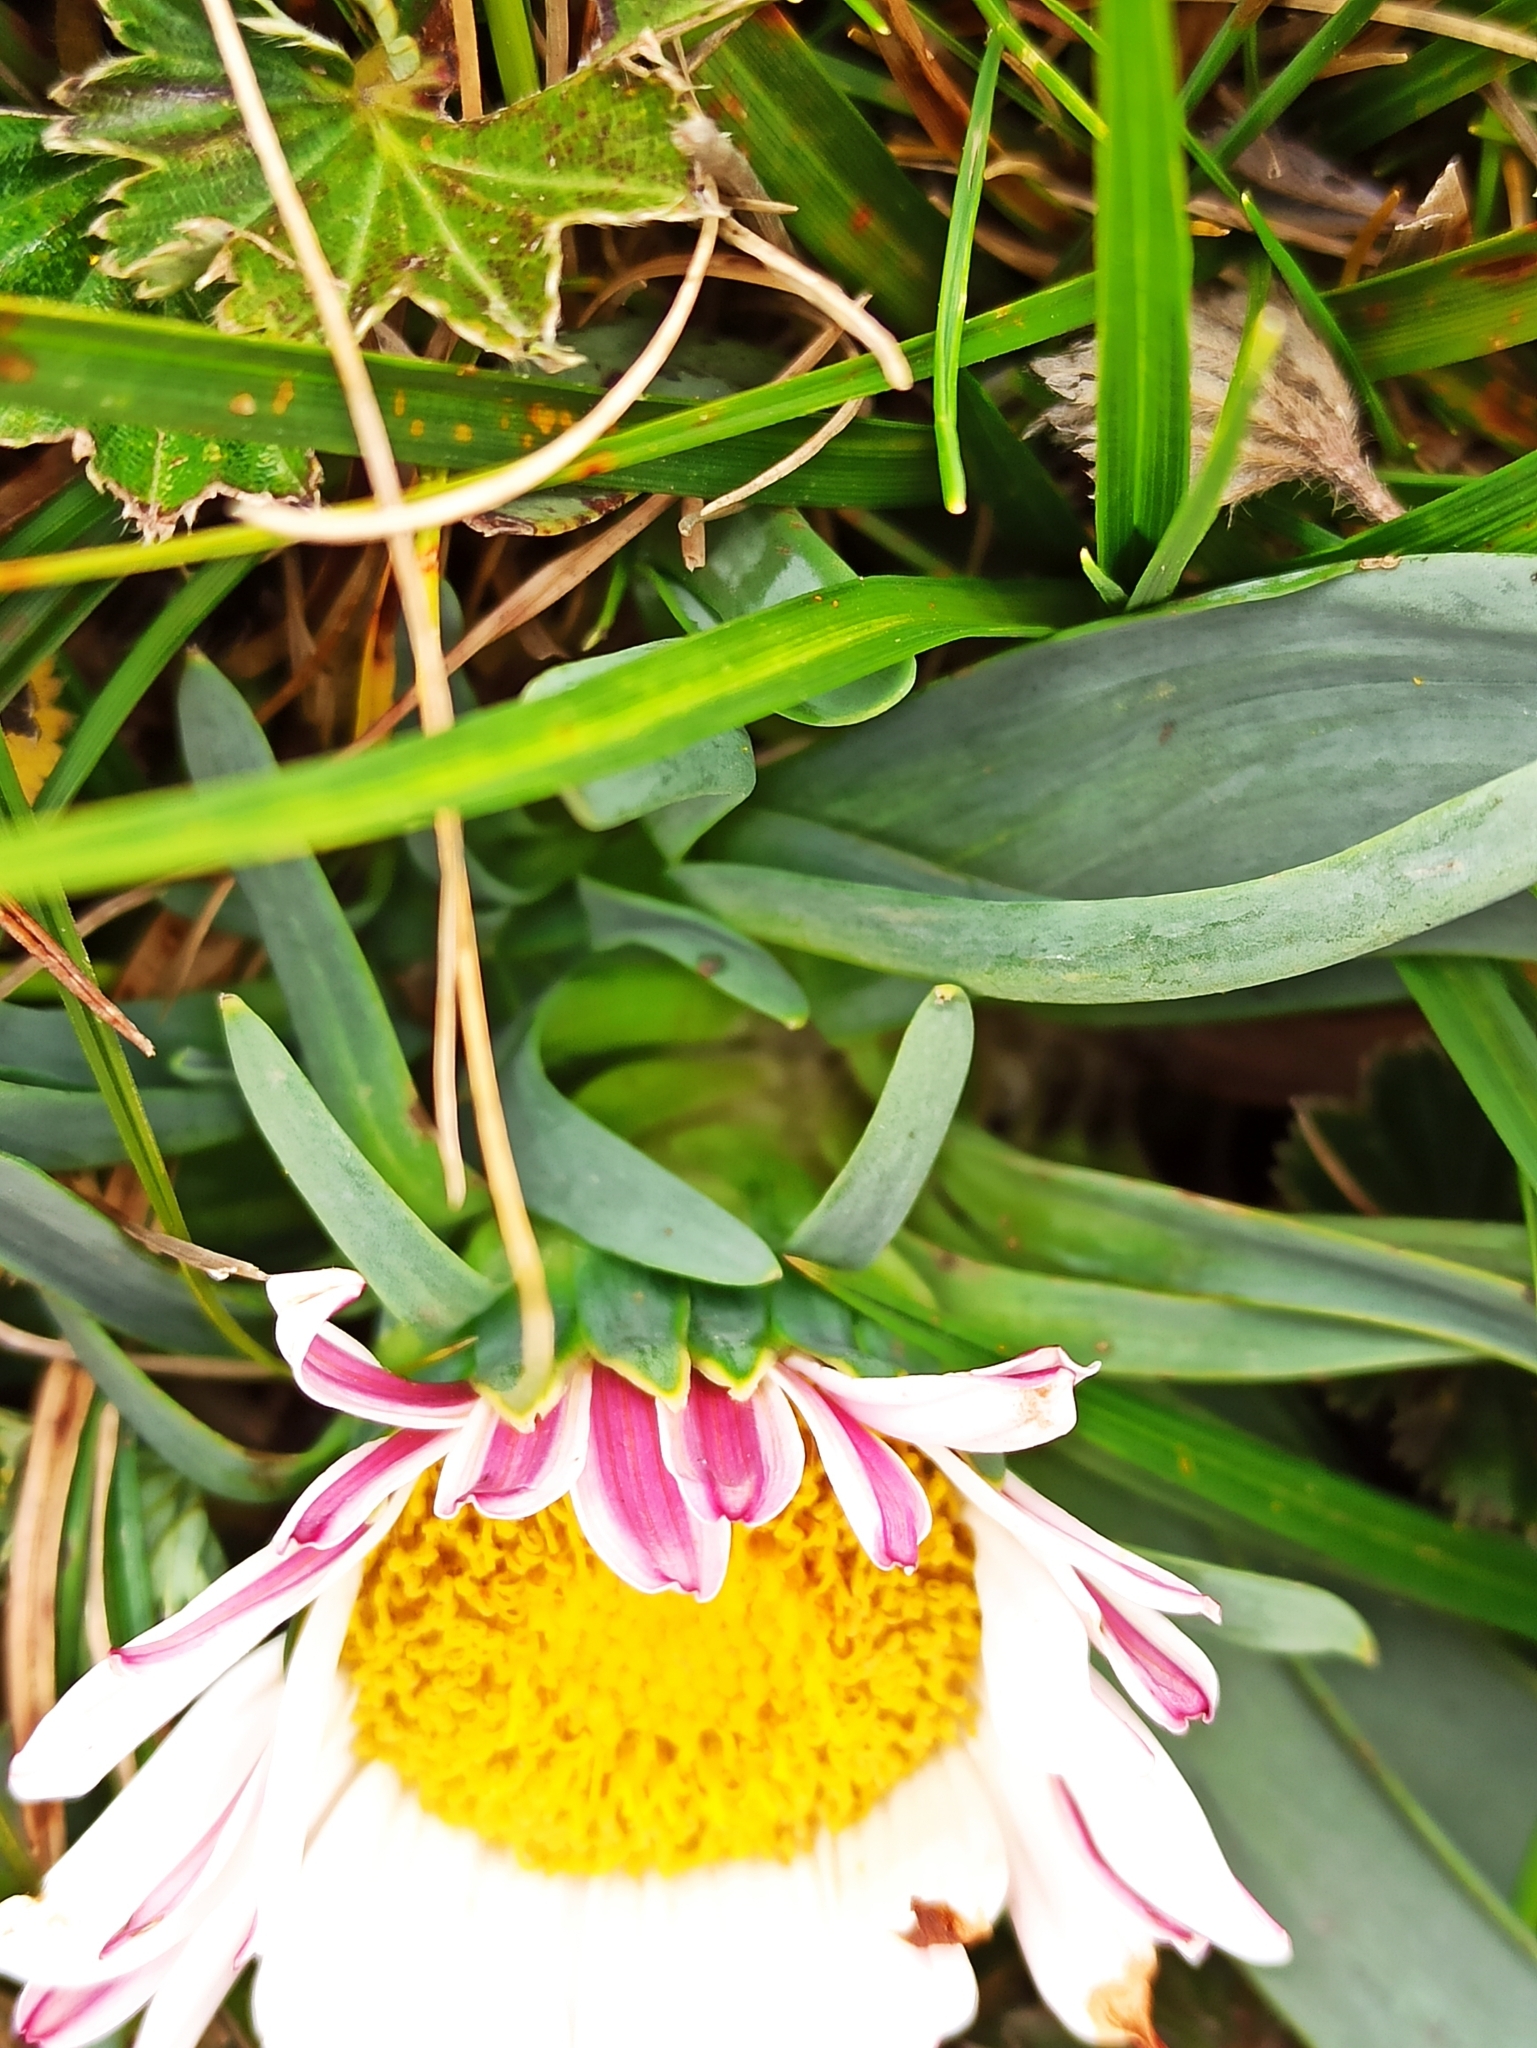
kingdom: Plantae
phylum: Tracheophyta
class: Magnoliopsida
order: Asterales
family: Asteraceae
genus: Rockhausenia
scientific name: Rockhausenia nubigena
